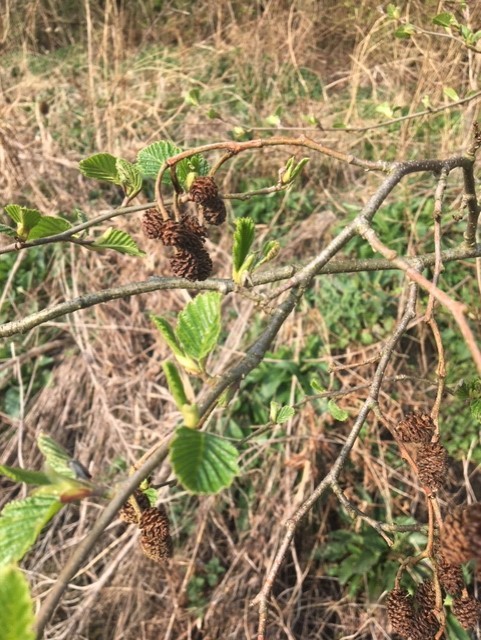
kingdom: Plantae
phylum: Tracheophyta
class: Magnoliopsida
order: Fagales
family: Betulaceae
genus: Alnus
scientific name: Alnus glutinosa
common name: Black alder
